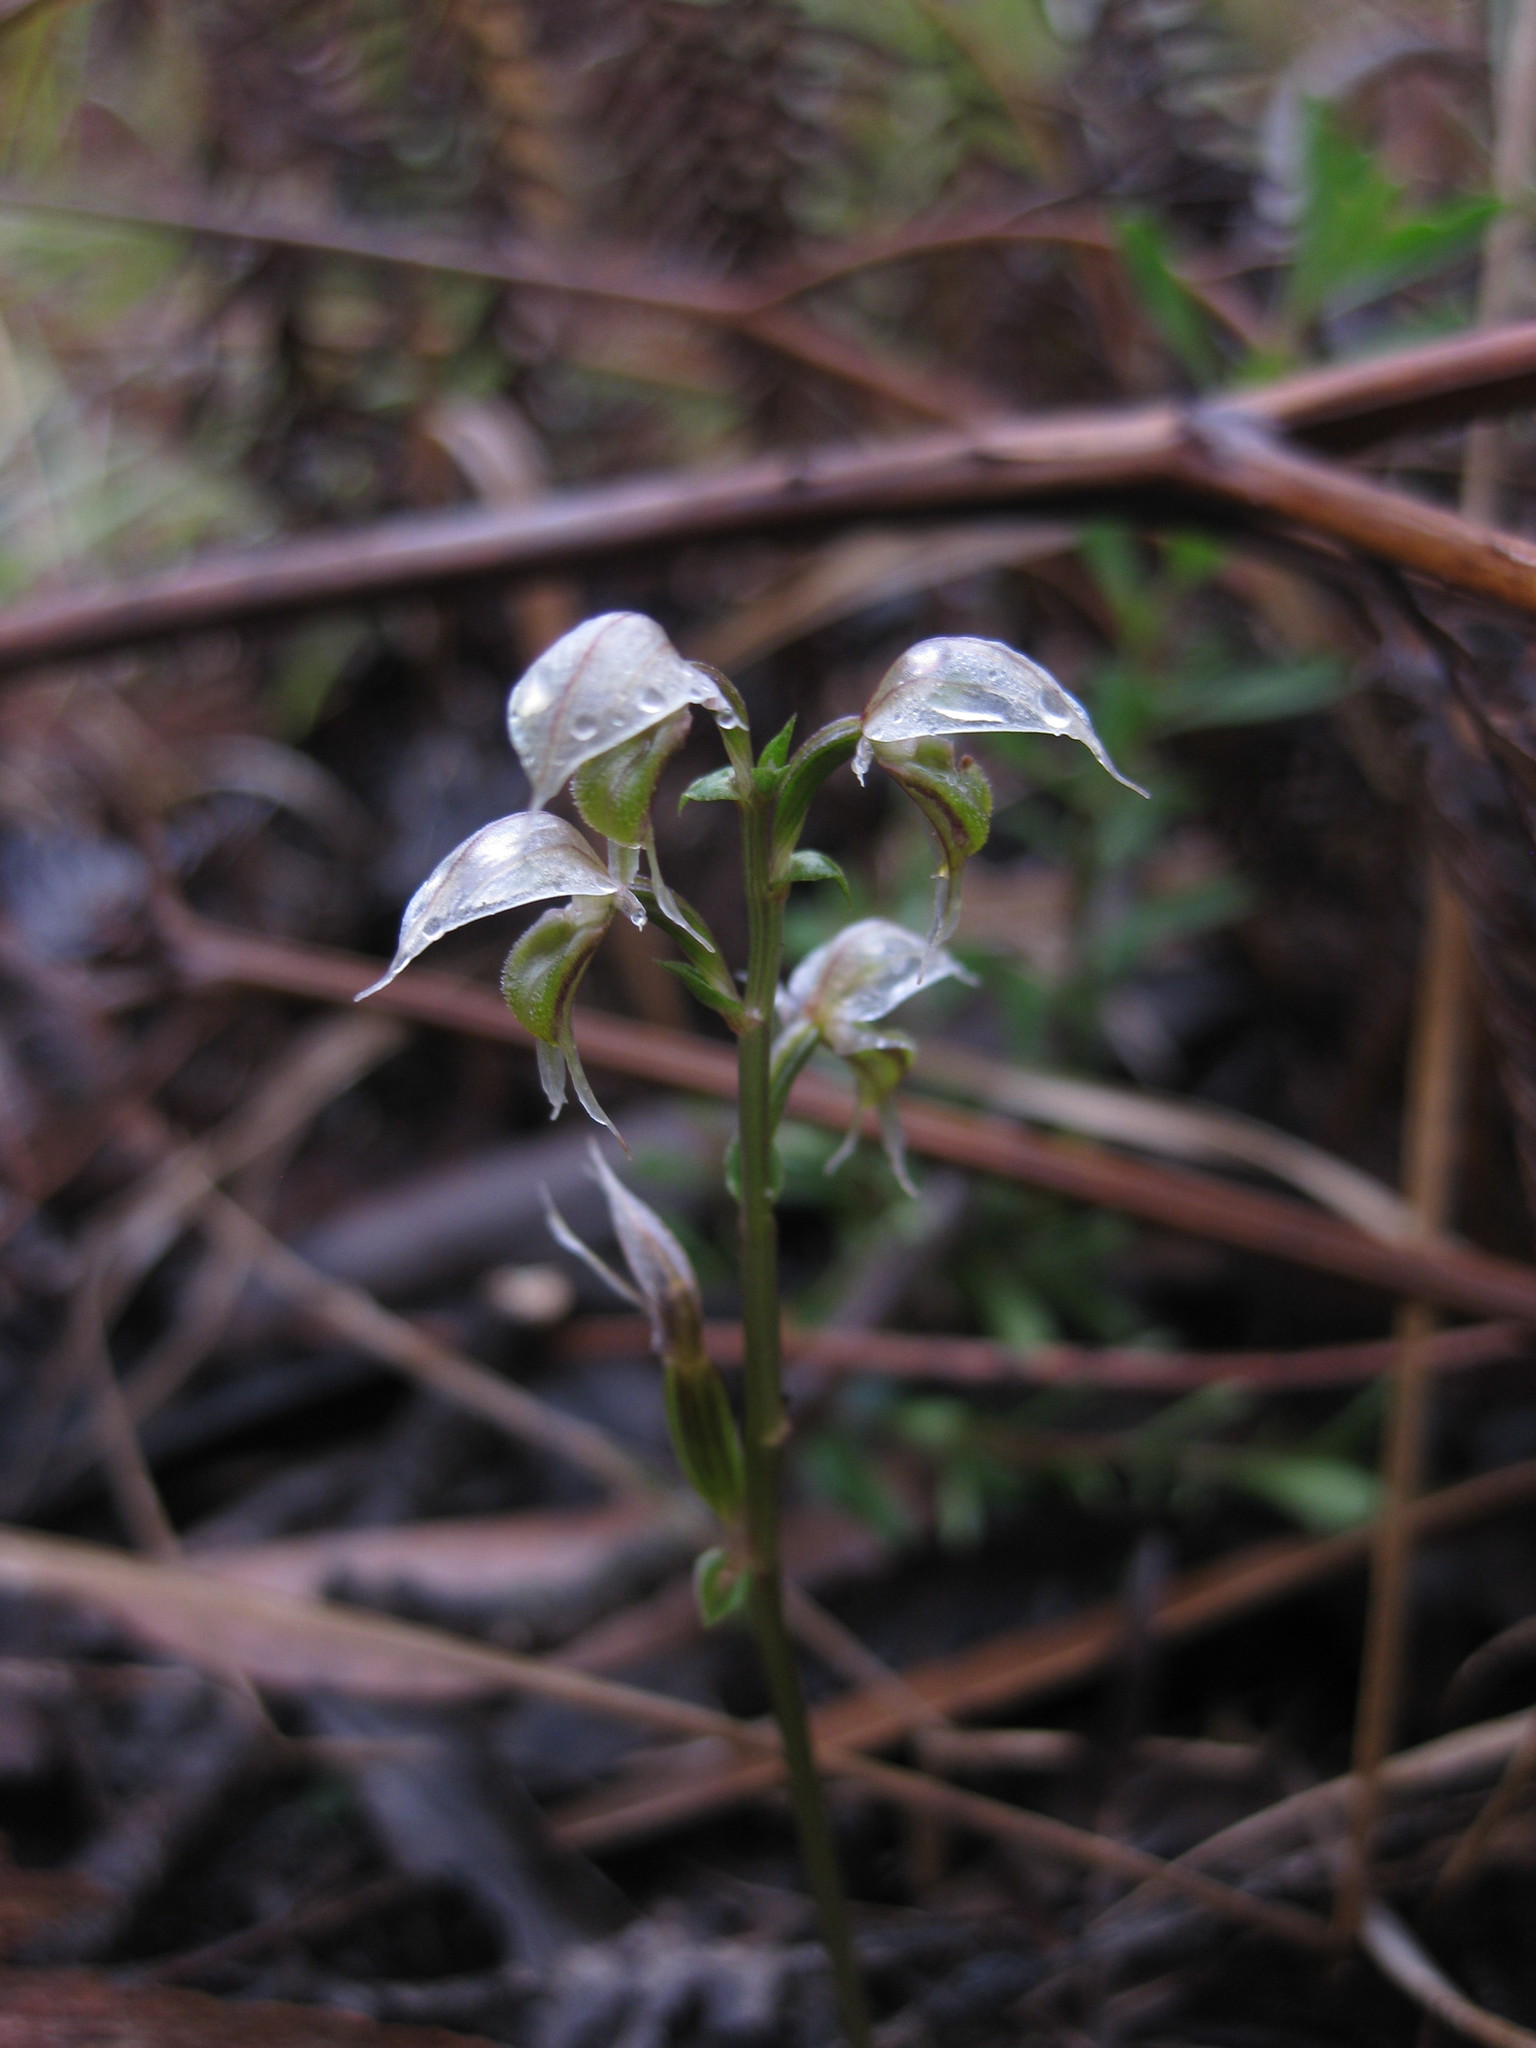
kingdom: Plantae
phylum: Tracheophyta
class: Liliopsida
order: Asparagales
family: Orchidaceae
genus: Acianthus
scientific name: Acianthus fornicatus
